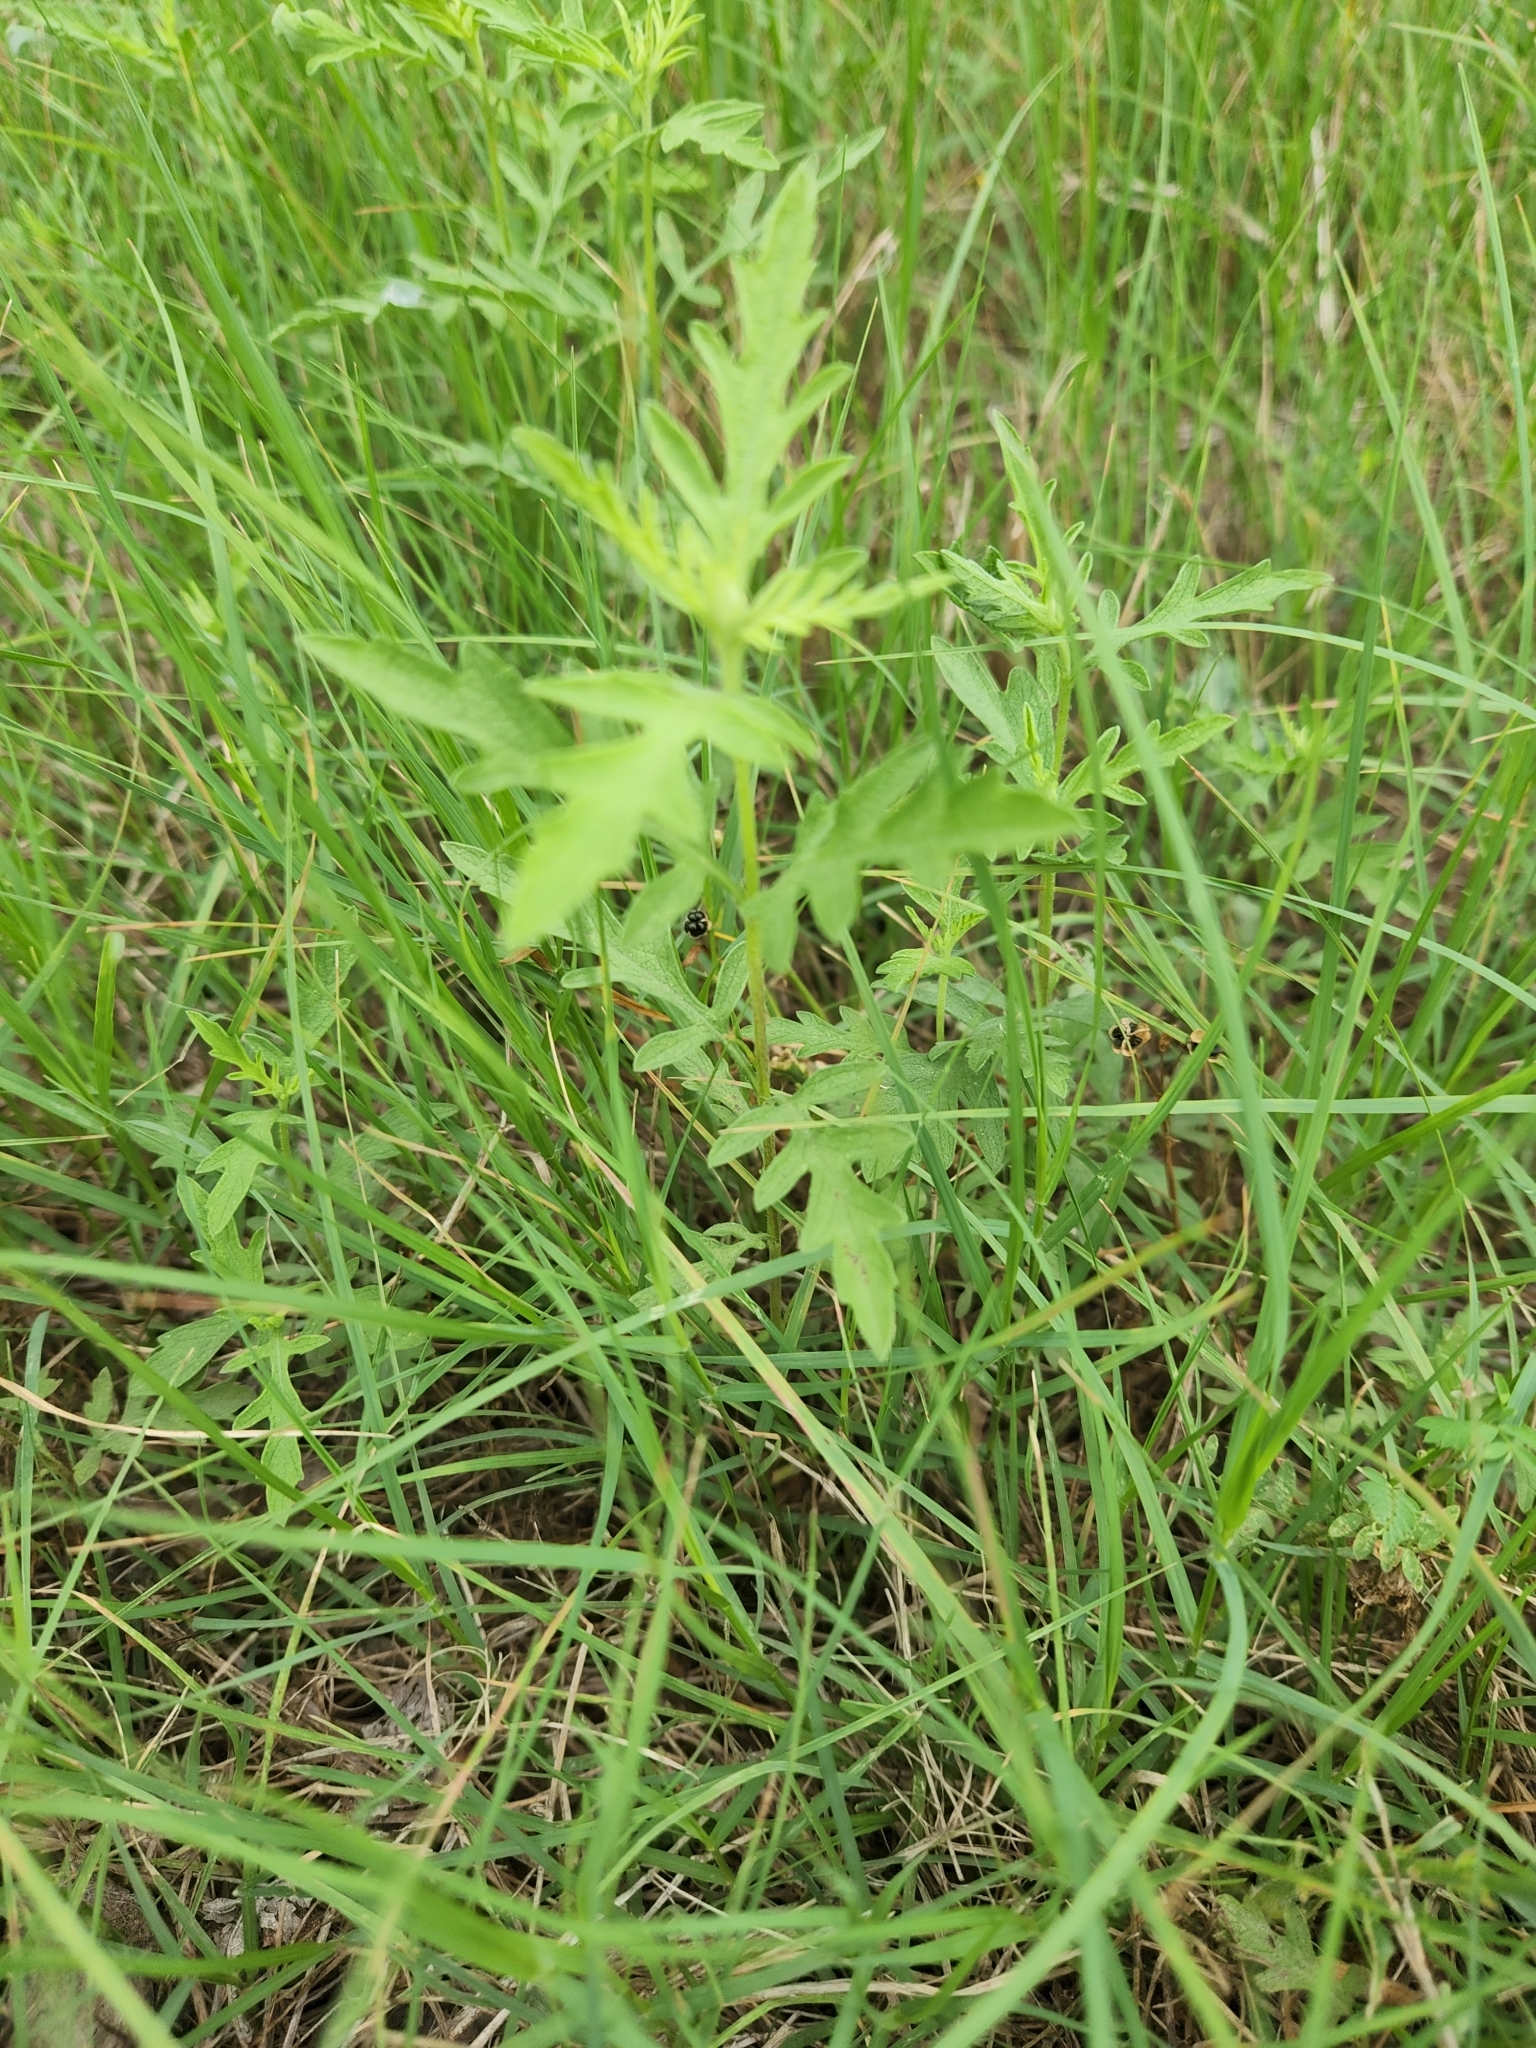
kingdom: Plantae
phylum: Tracheophyta
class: Magnoliopsida
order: Asterales
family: Asteraceae
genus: Ambrosia
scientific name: Ambrosia psilostachya
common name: Perennial ragweed
